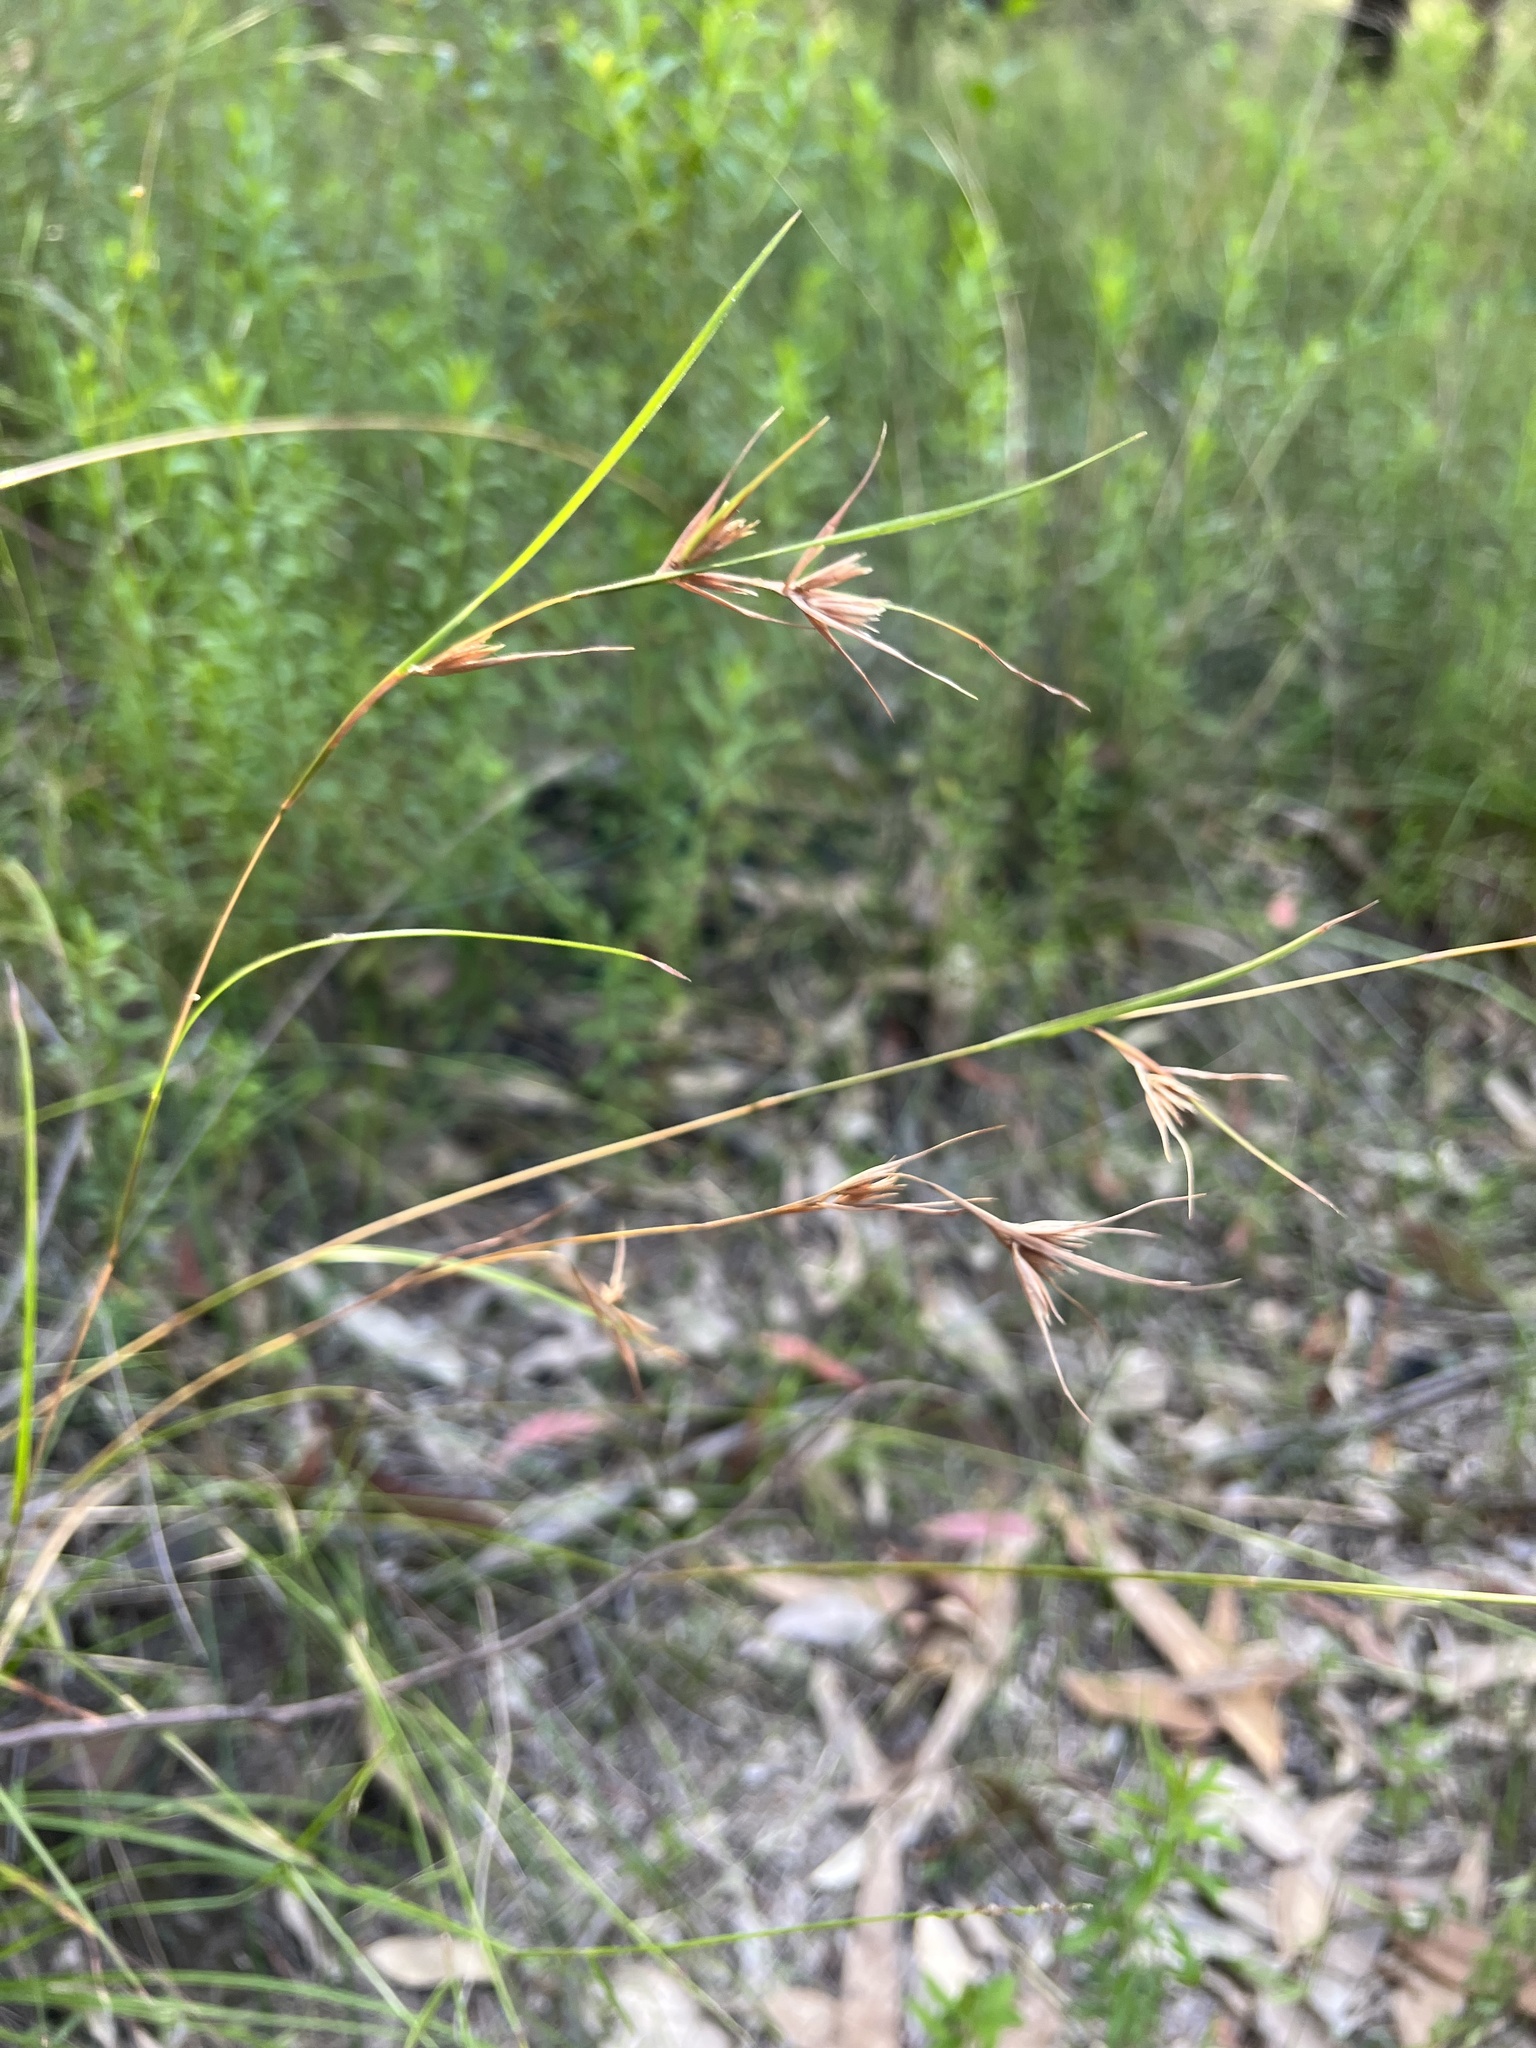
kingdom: Plantae
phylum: Tracheophyta
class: Liliopsida
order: Poales
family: Poaceae
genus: Themeda
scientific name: Themeda triandra
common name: Kangaroo grass
